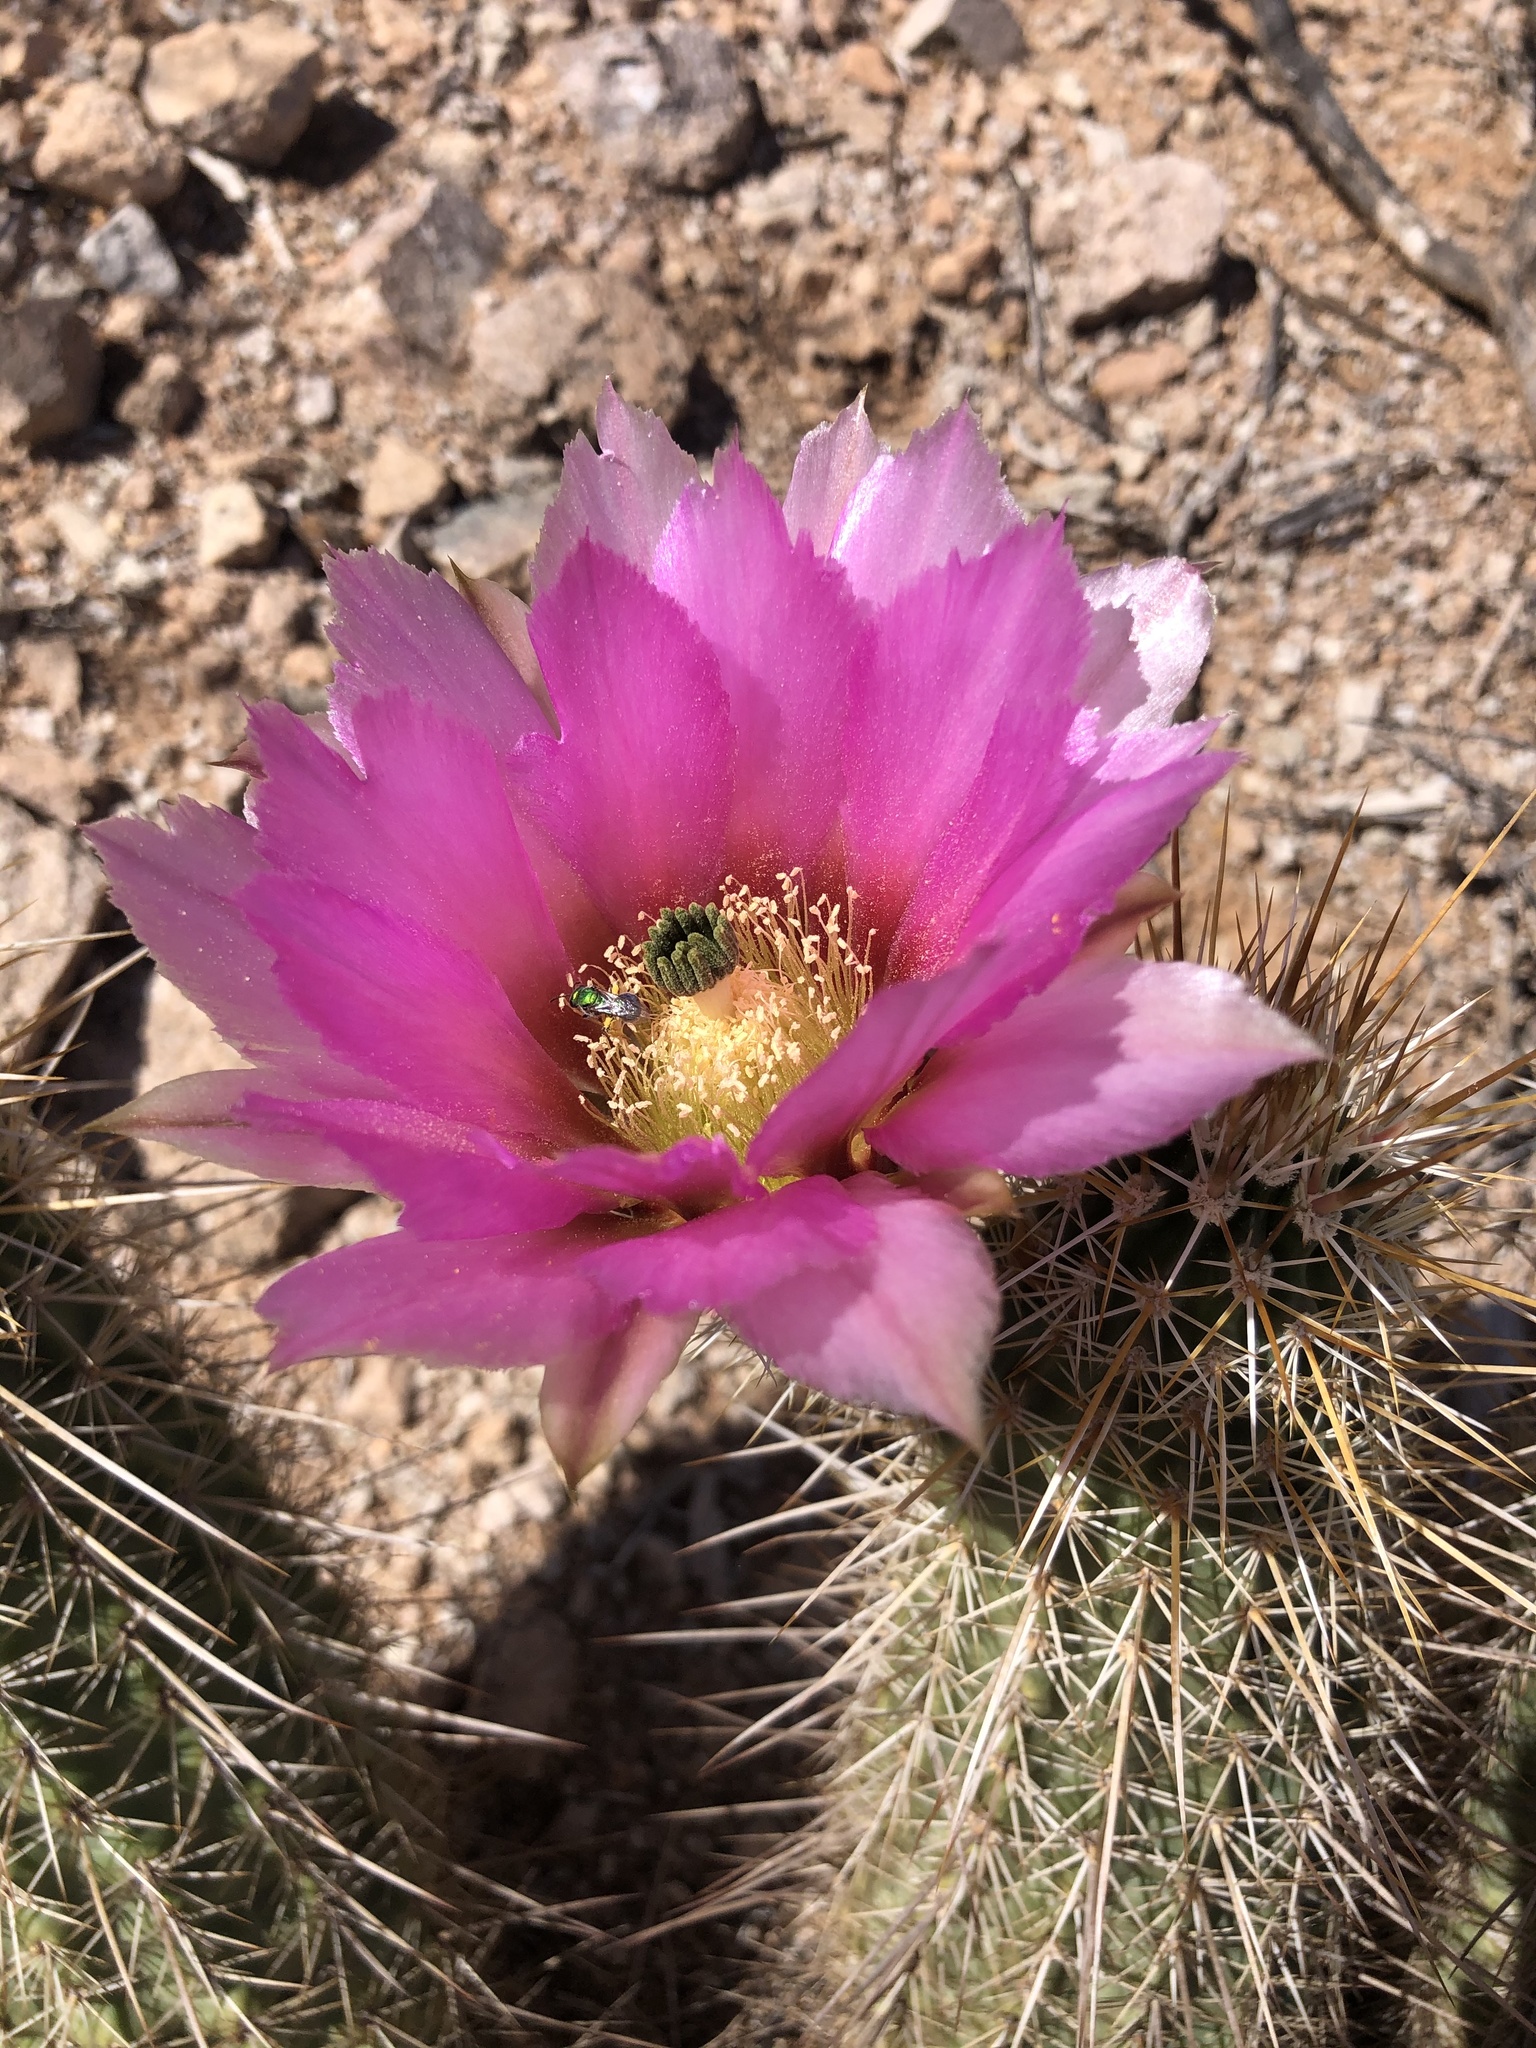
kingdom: Plantae
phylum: Tracheophyta
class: Magnoliopsida
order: Caryophyllales
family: Cactaceae
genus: Echinocereus
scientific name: Echinocereus fasciculatus
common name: Bundle hedgehog
